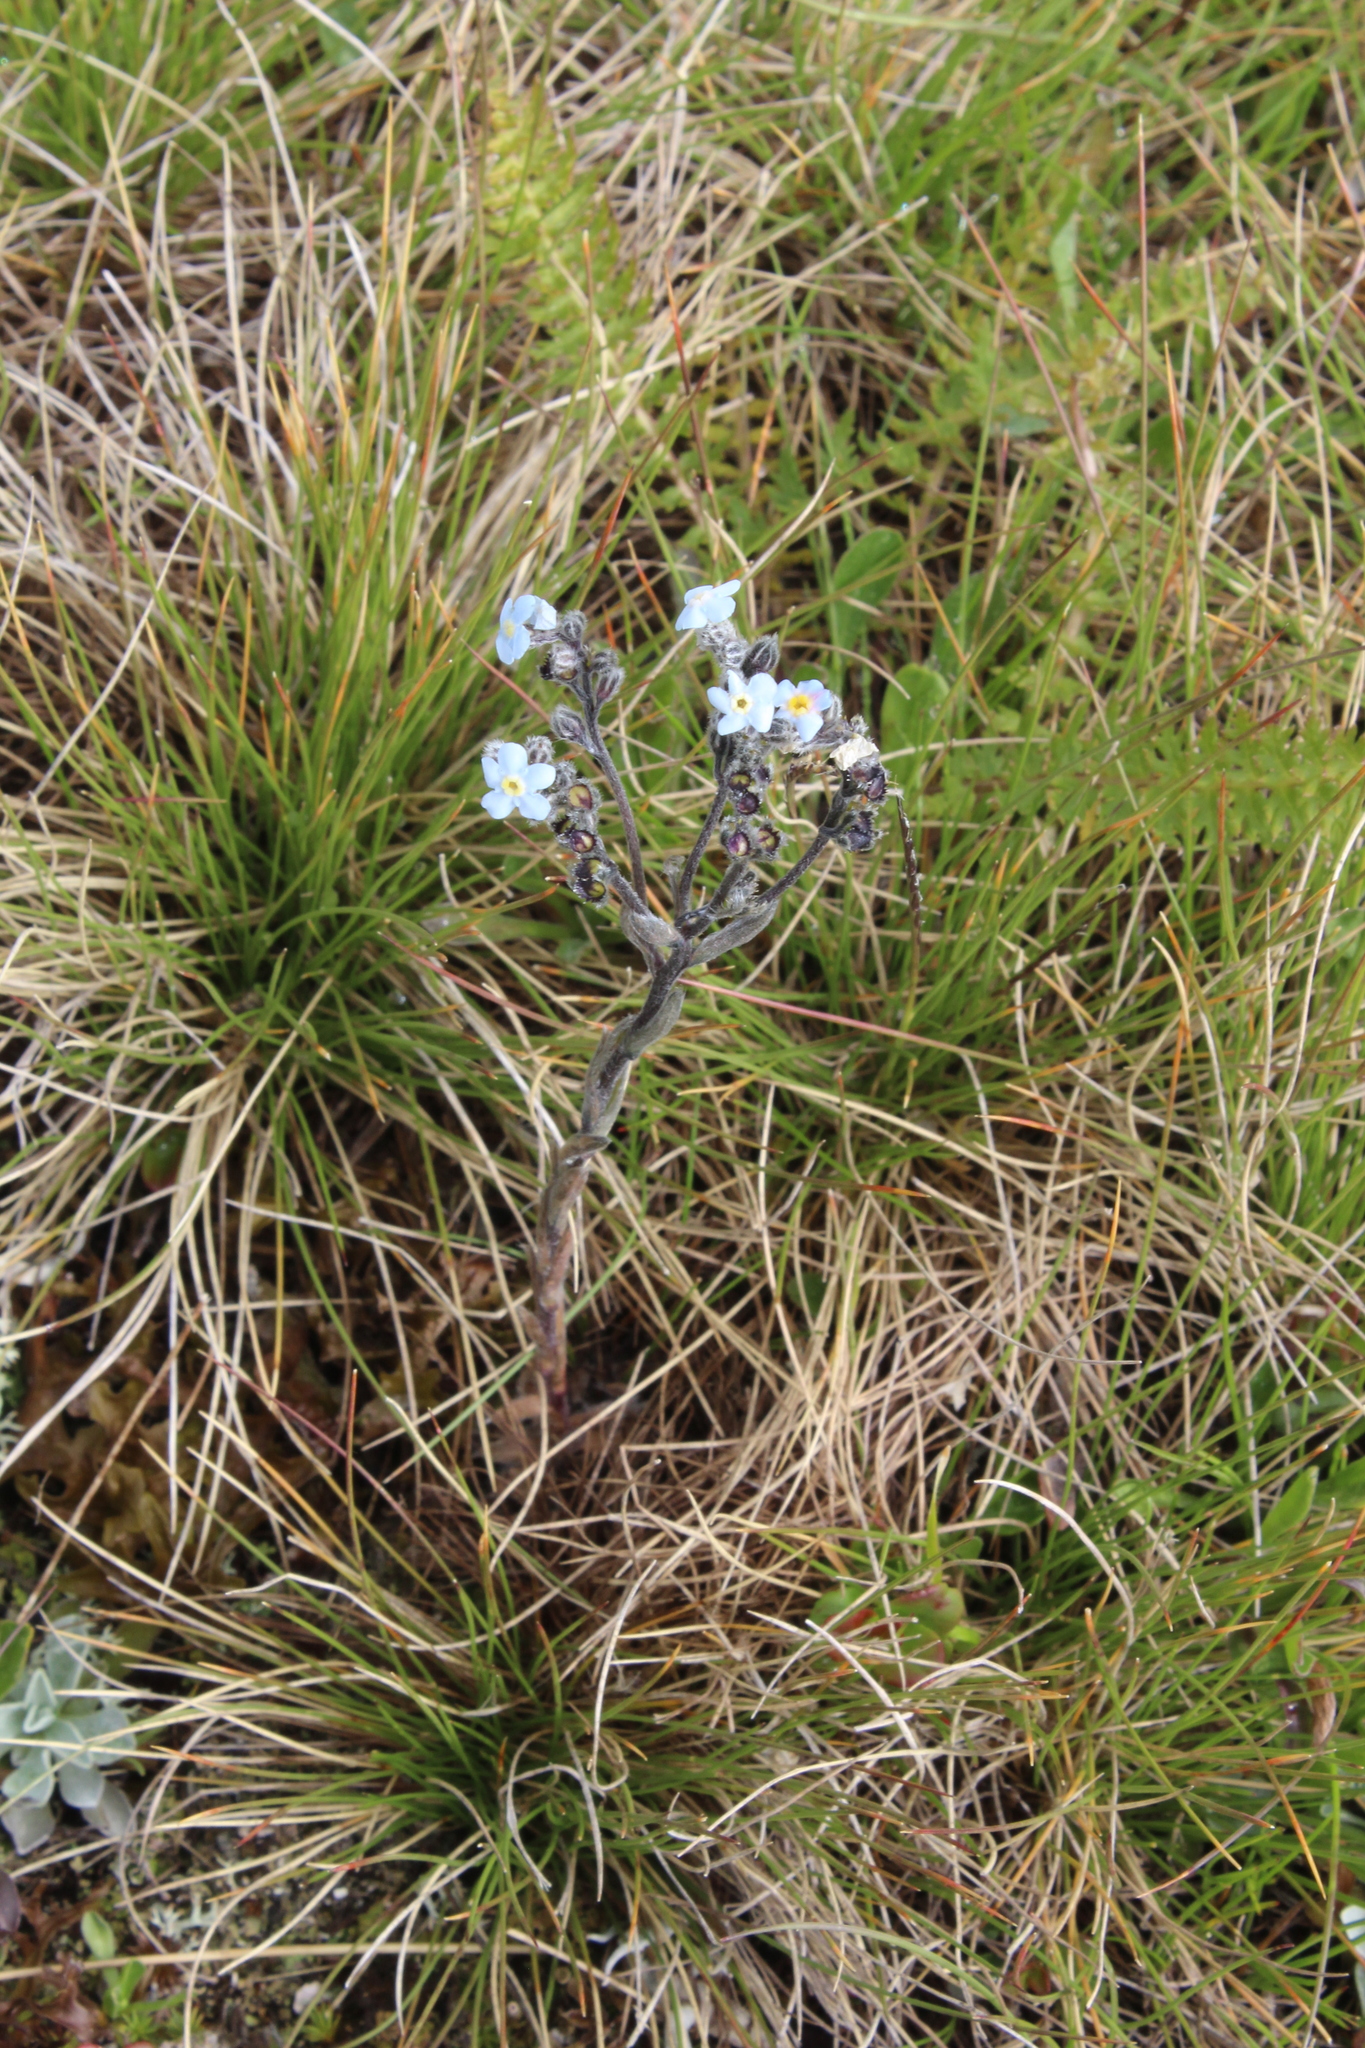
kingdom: Plantae
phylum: Tracheophyta
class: Magnoliopsida
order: Boraginales
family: Boraginaceae
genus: Eritrichium
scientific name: Eritrichium caucasicum
